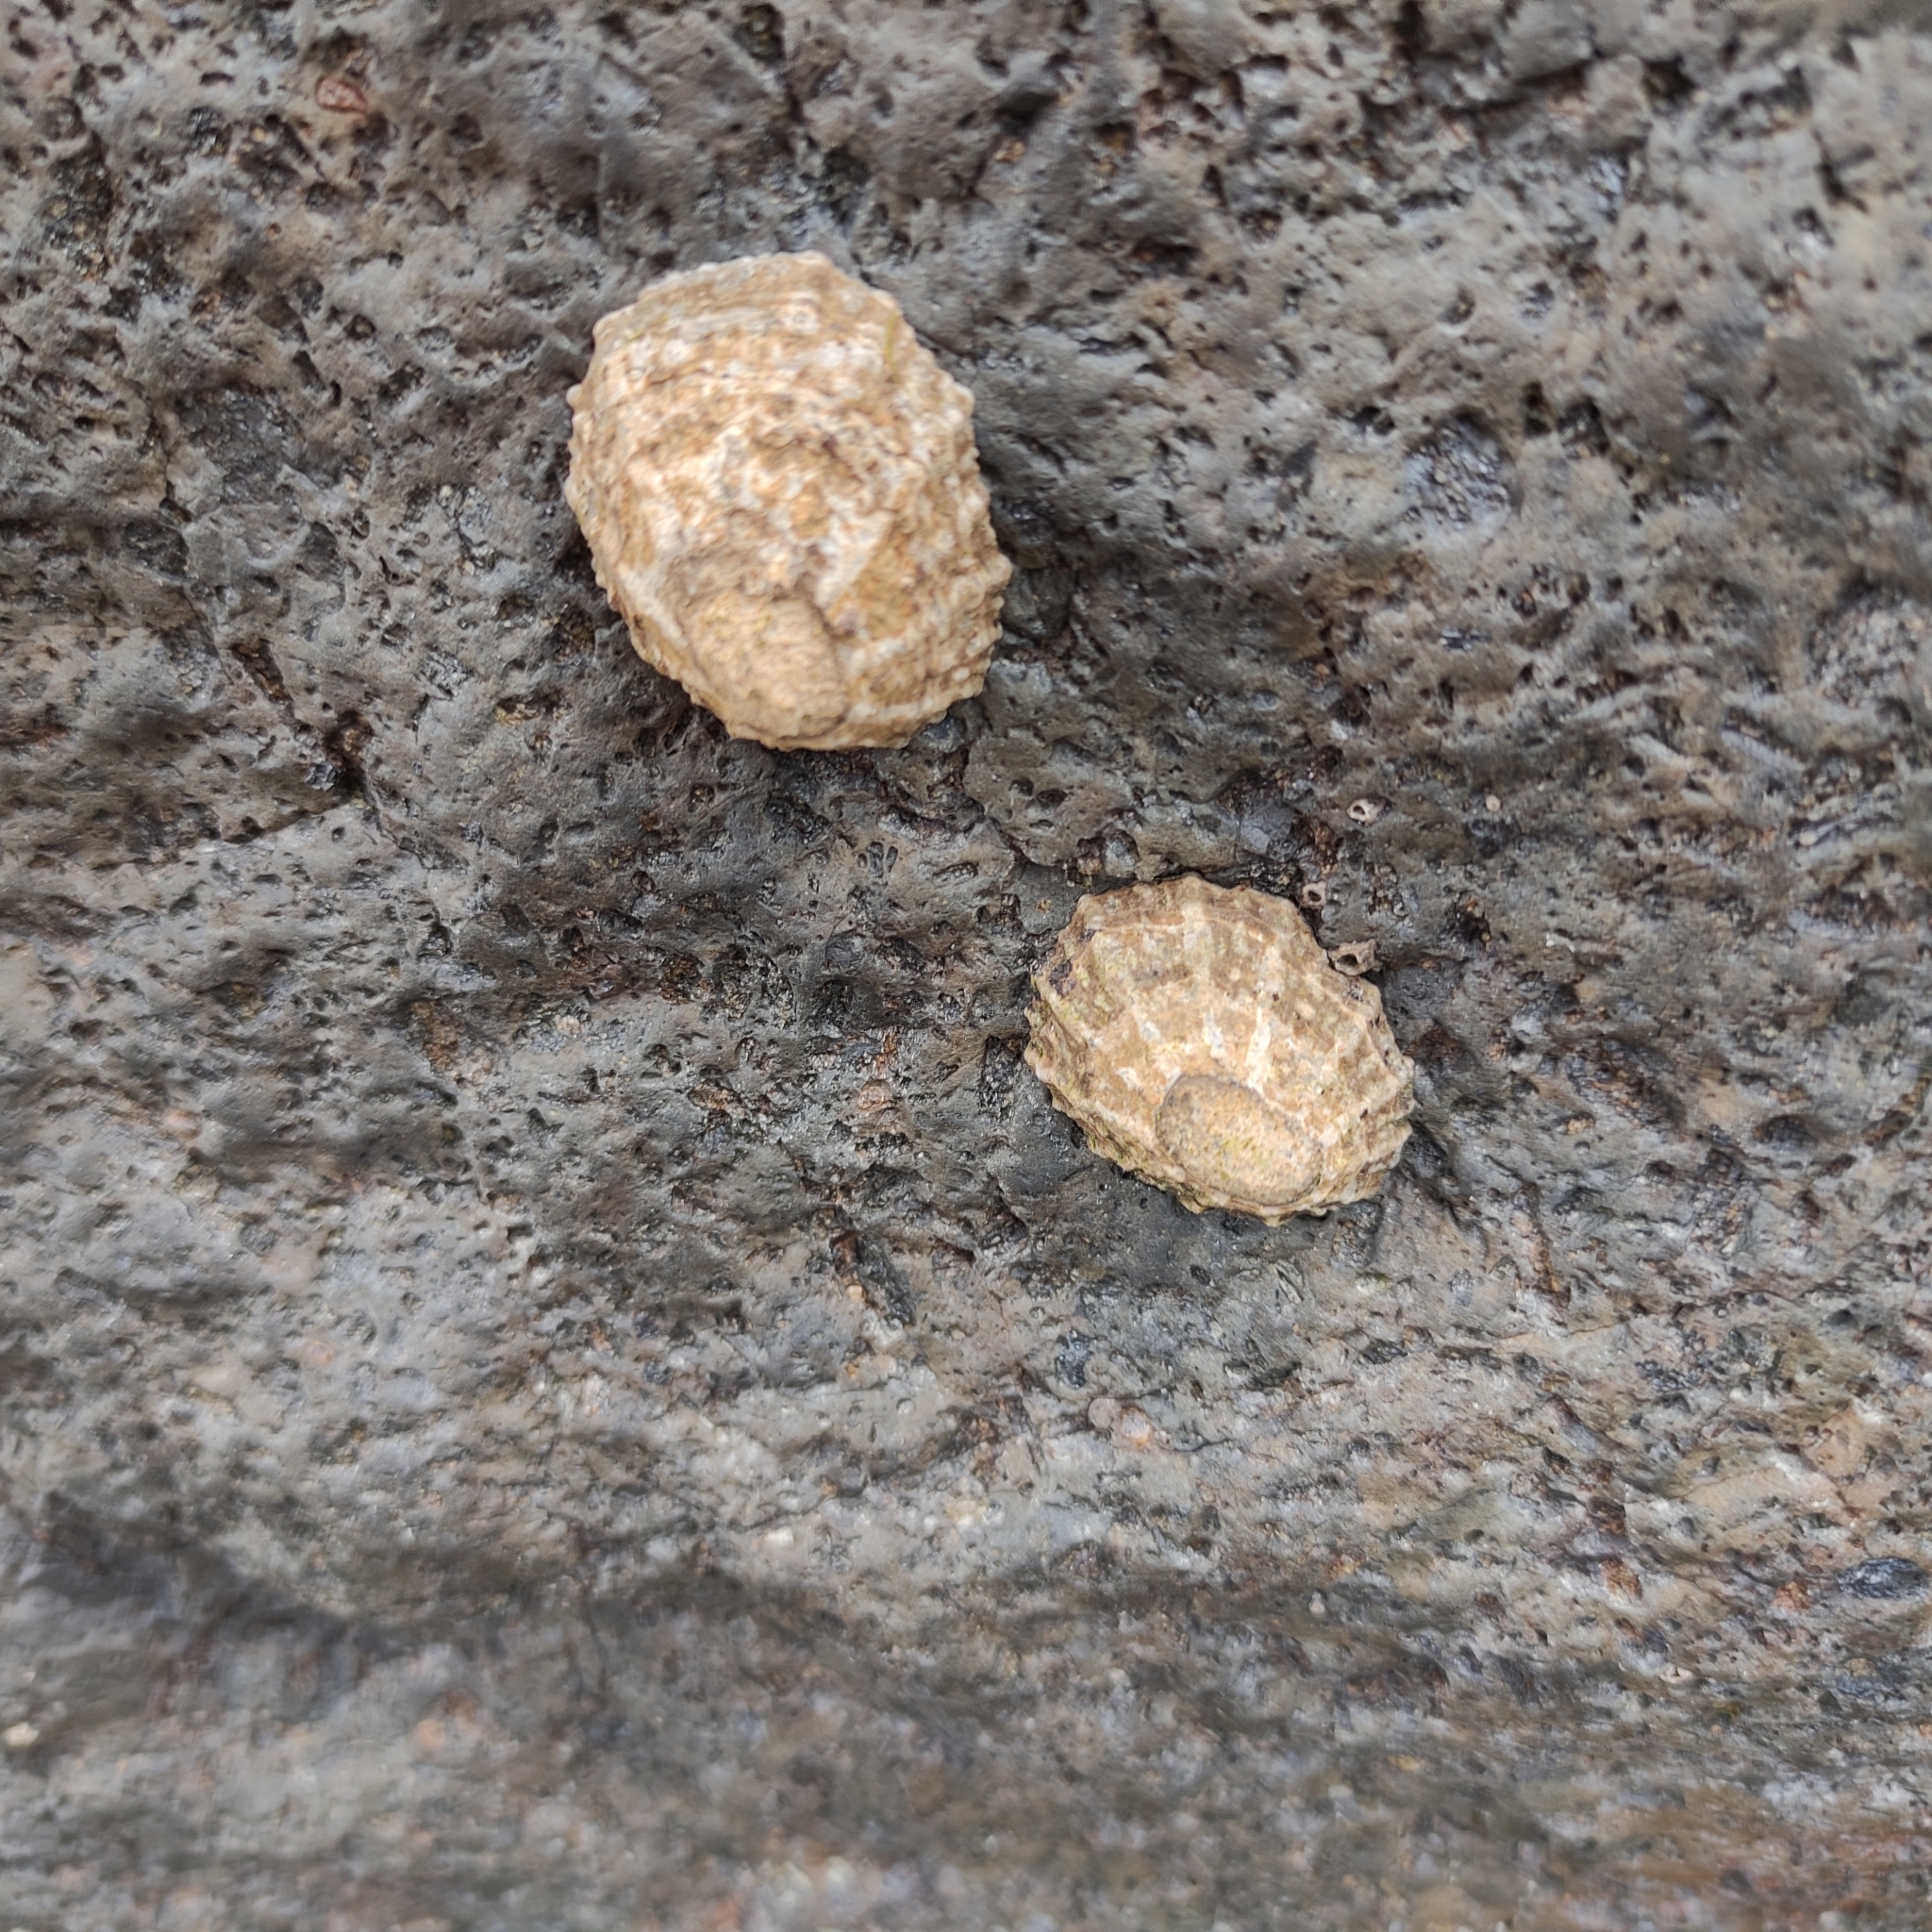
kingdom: Animalia
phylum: Mollusca
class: Gastropoda
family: Nacellidae
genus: Cellana
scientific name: Cellana ornata
